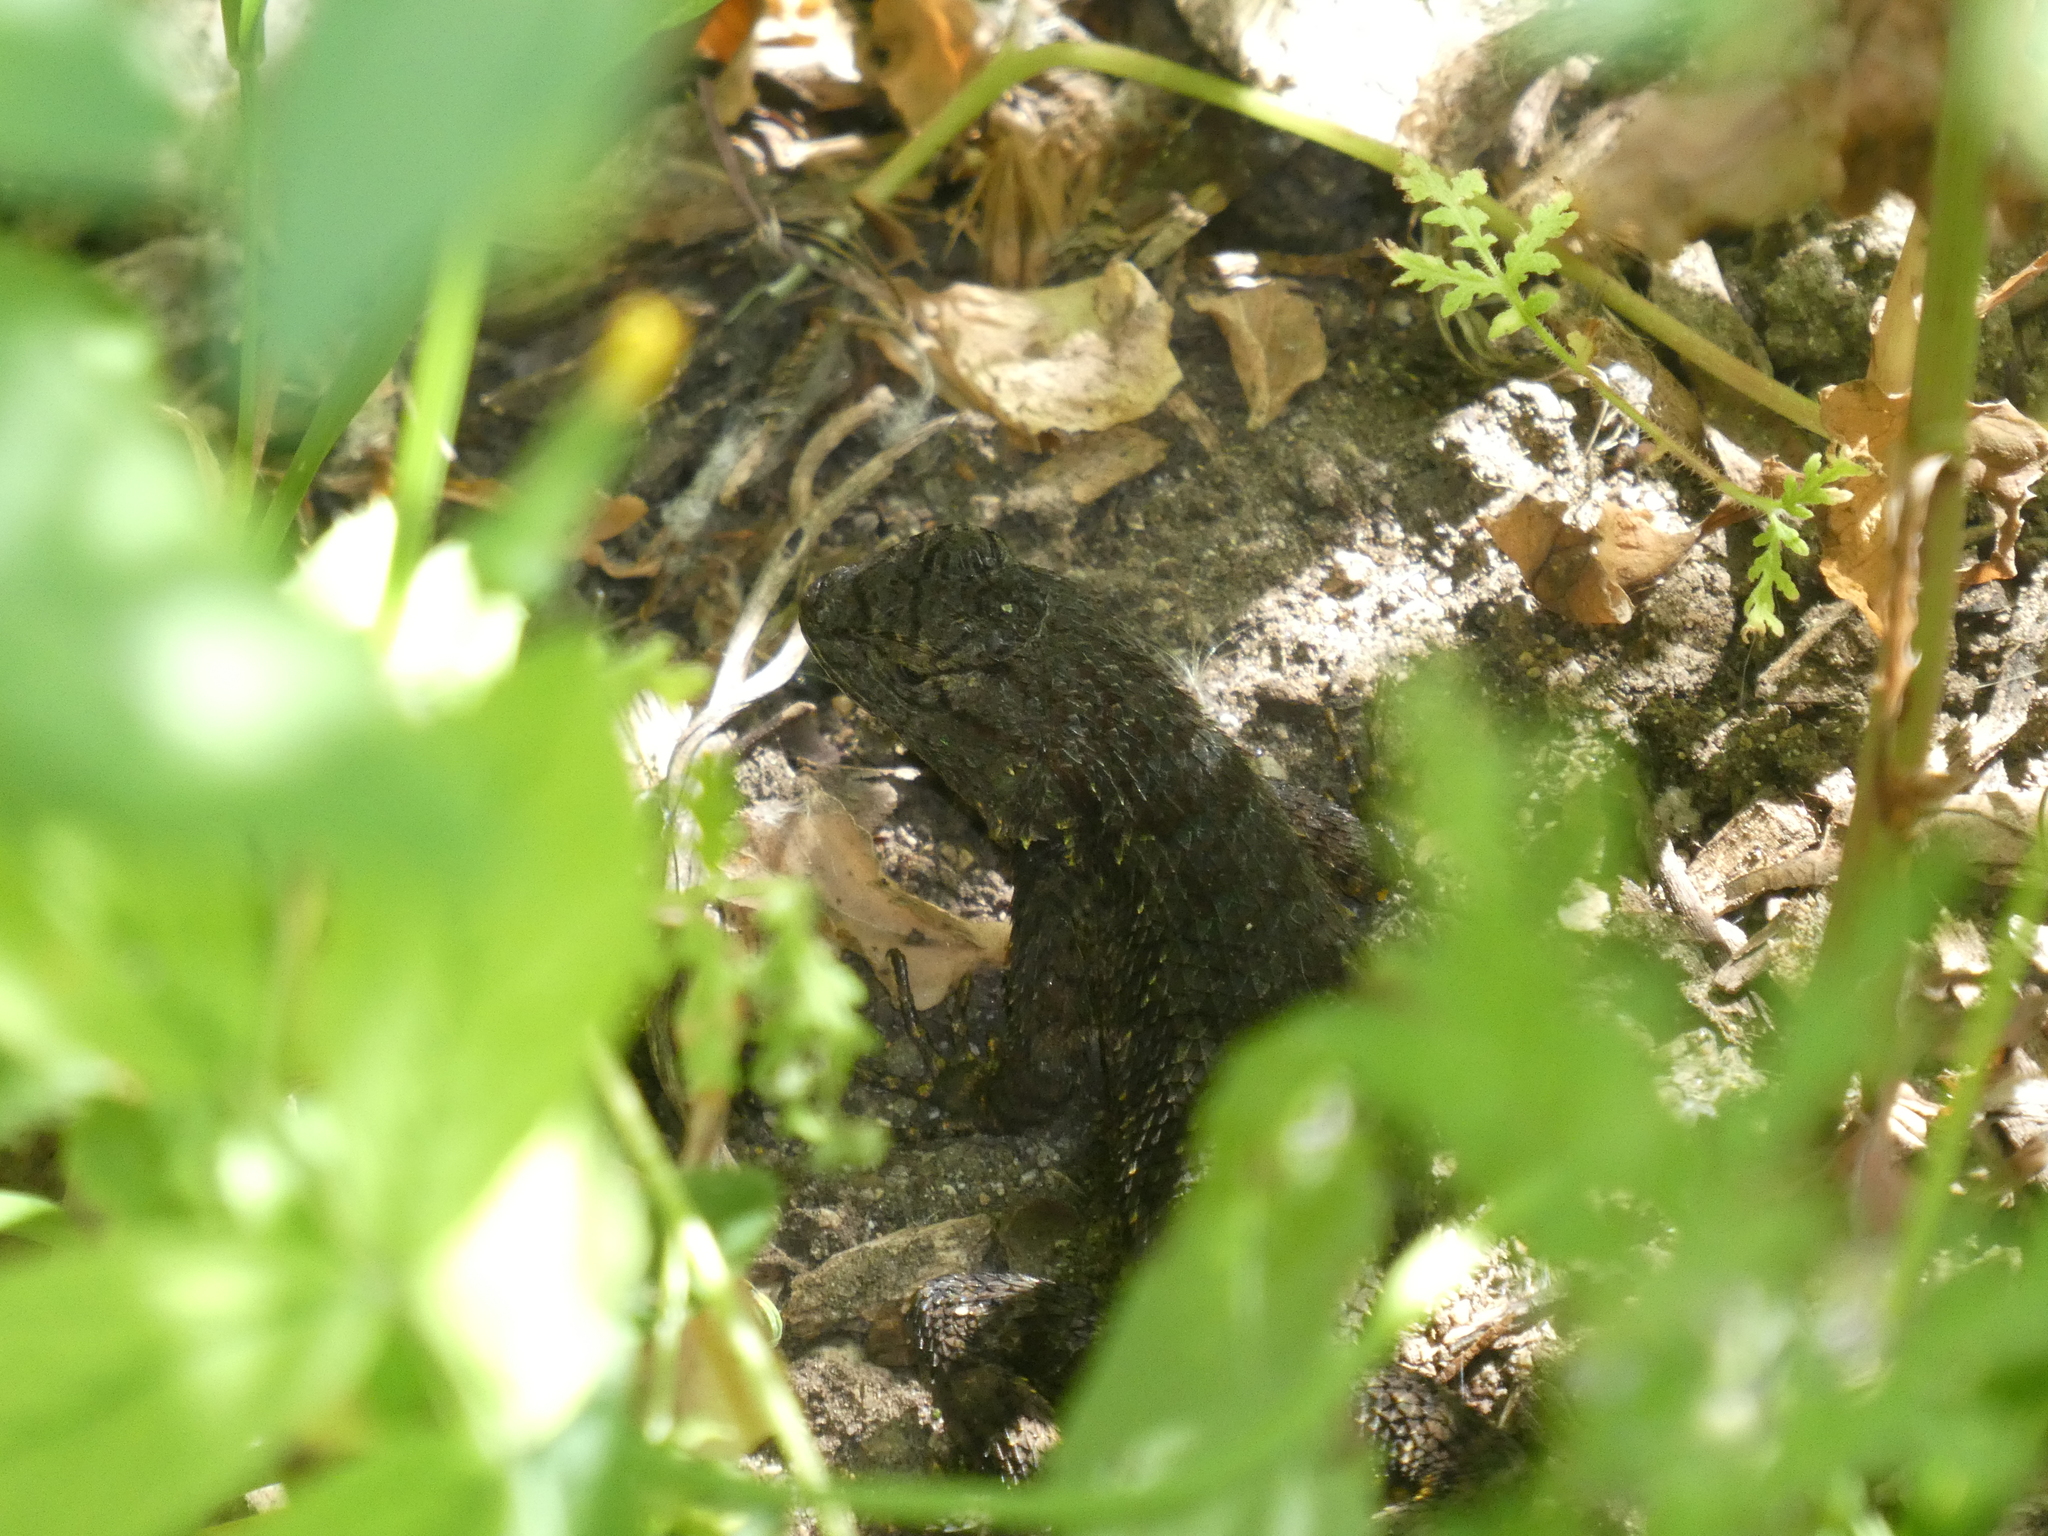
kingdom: Animalia
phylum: Chordata
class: Squamata
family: Phrynosomatidae
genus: Sceloporus
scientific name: Sceloporus occidentalis
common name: Western fence lizard
